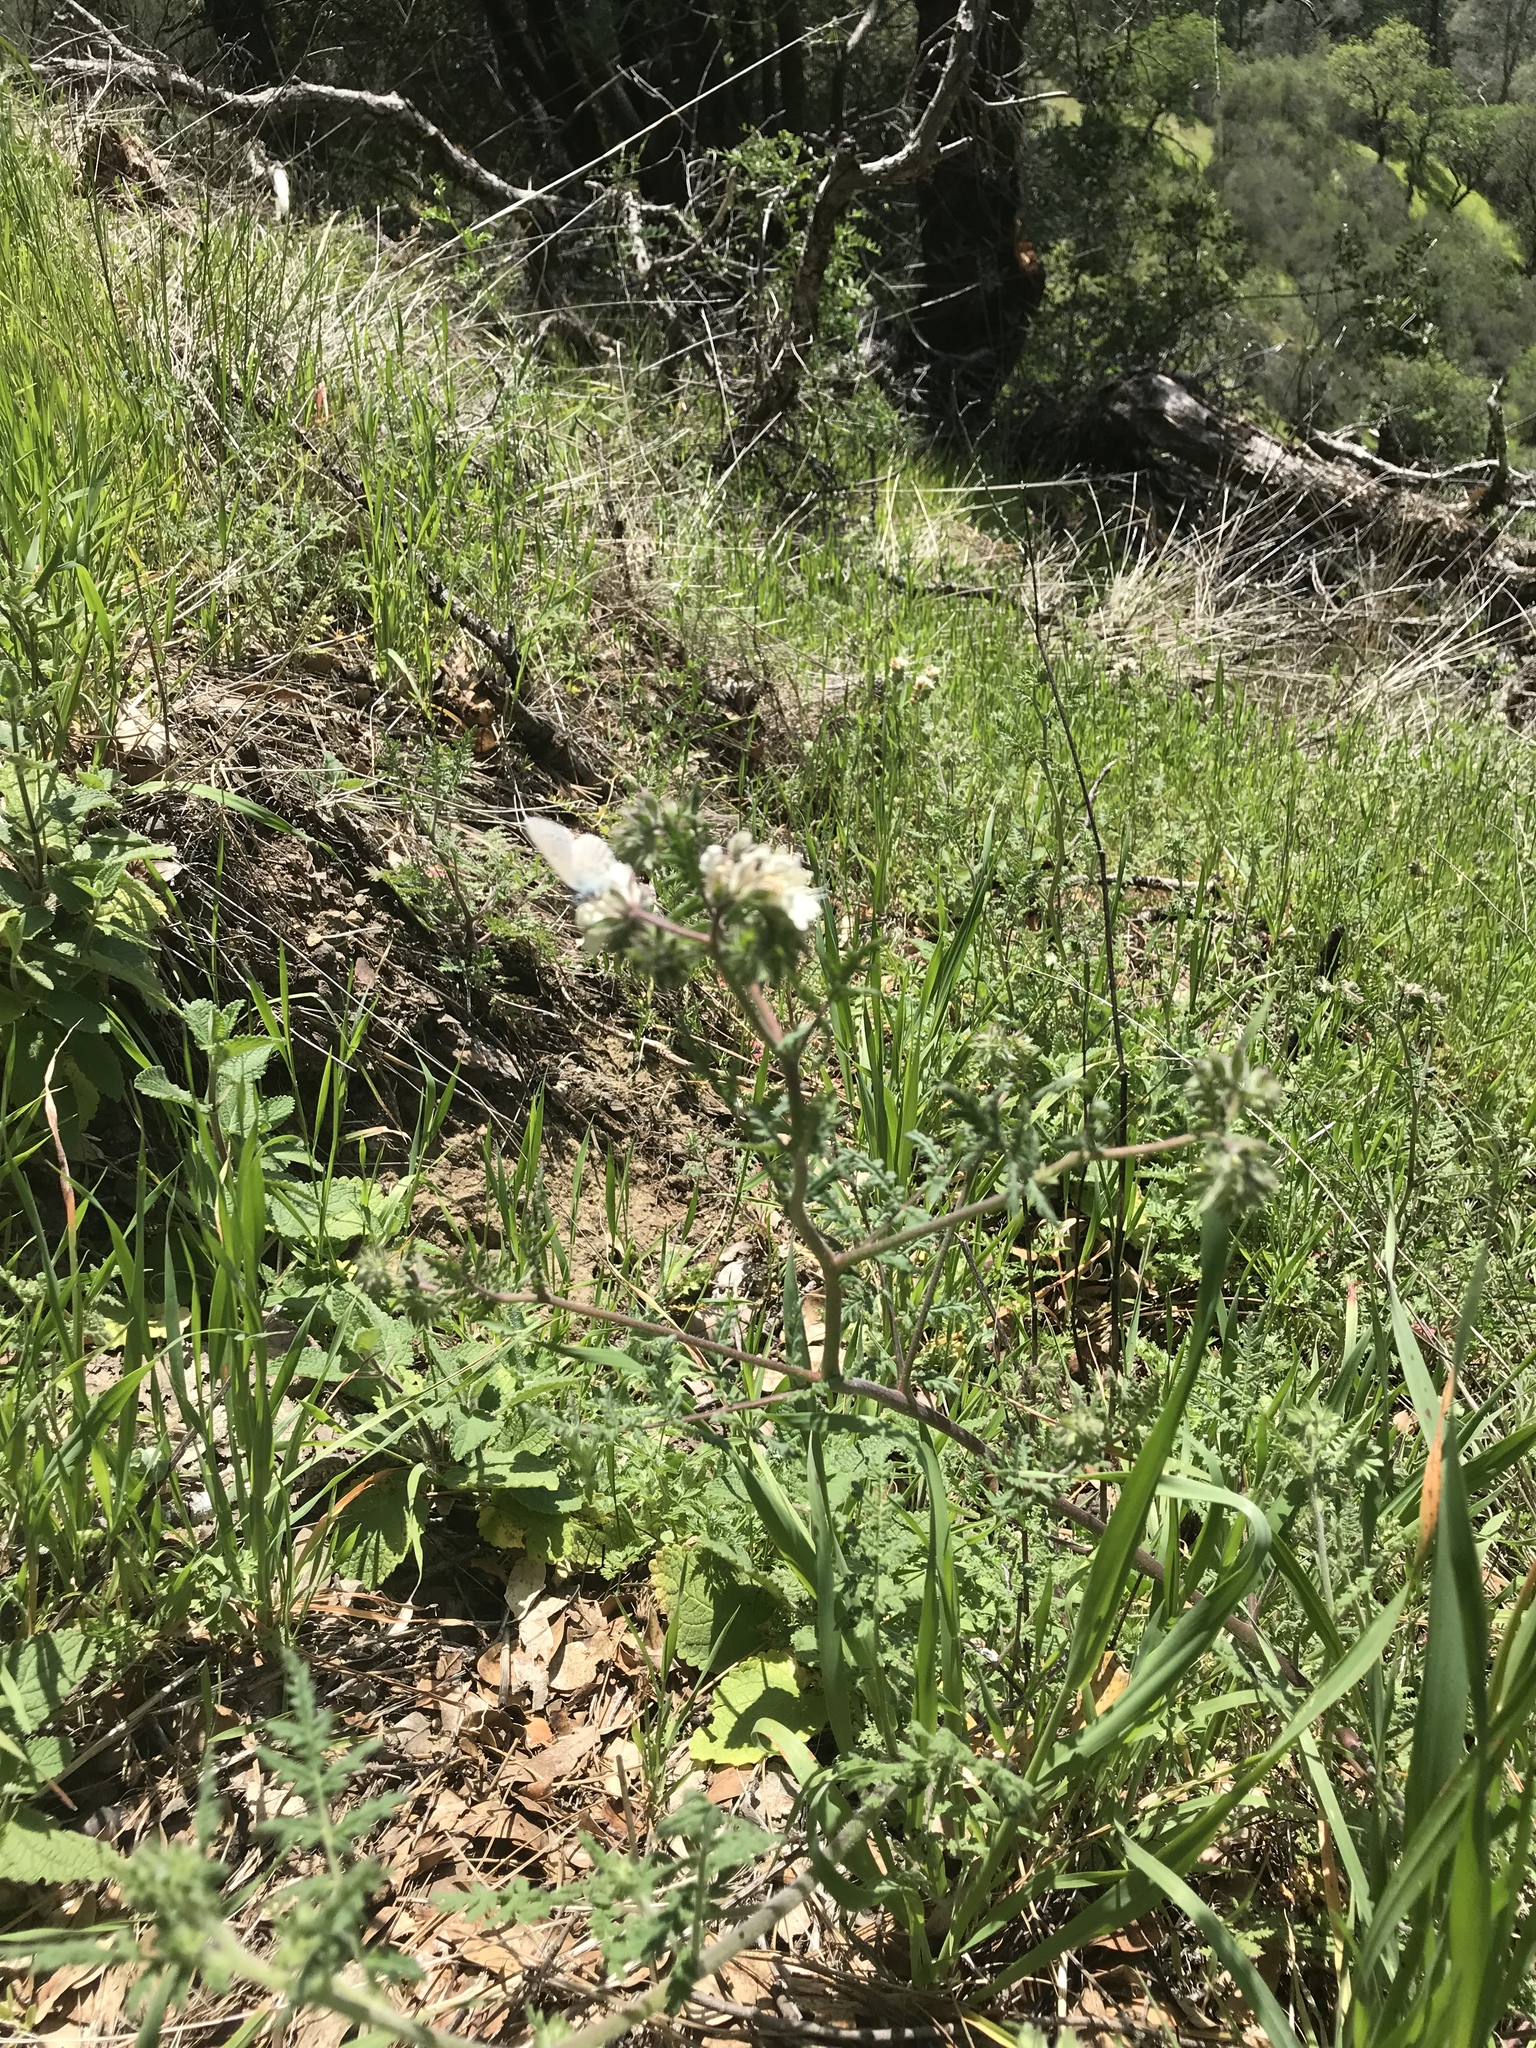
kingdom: Plantae
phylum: Tracheophyta
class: Liliopsida
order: Liliales
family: Melanthiaceae
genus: Toxicoscordion
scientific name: Toxicoscordion fremontii
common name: Fremont's death camas
